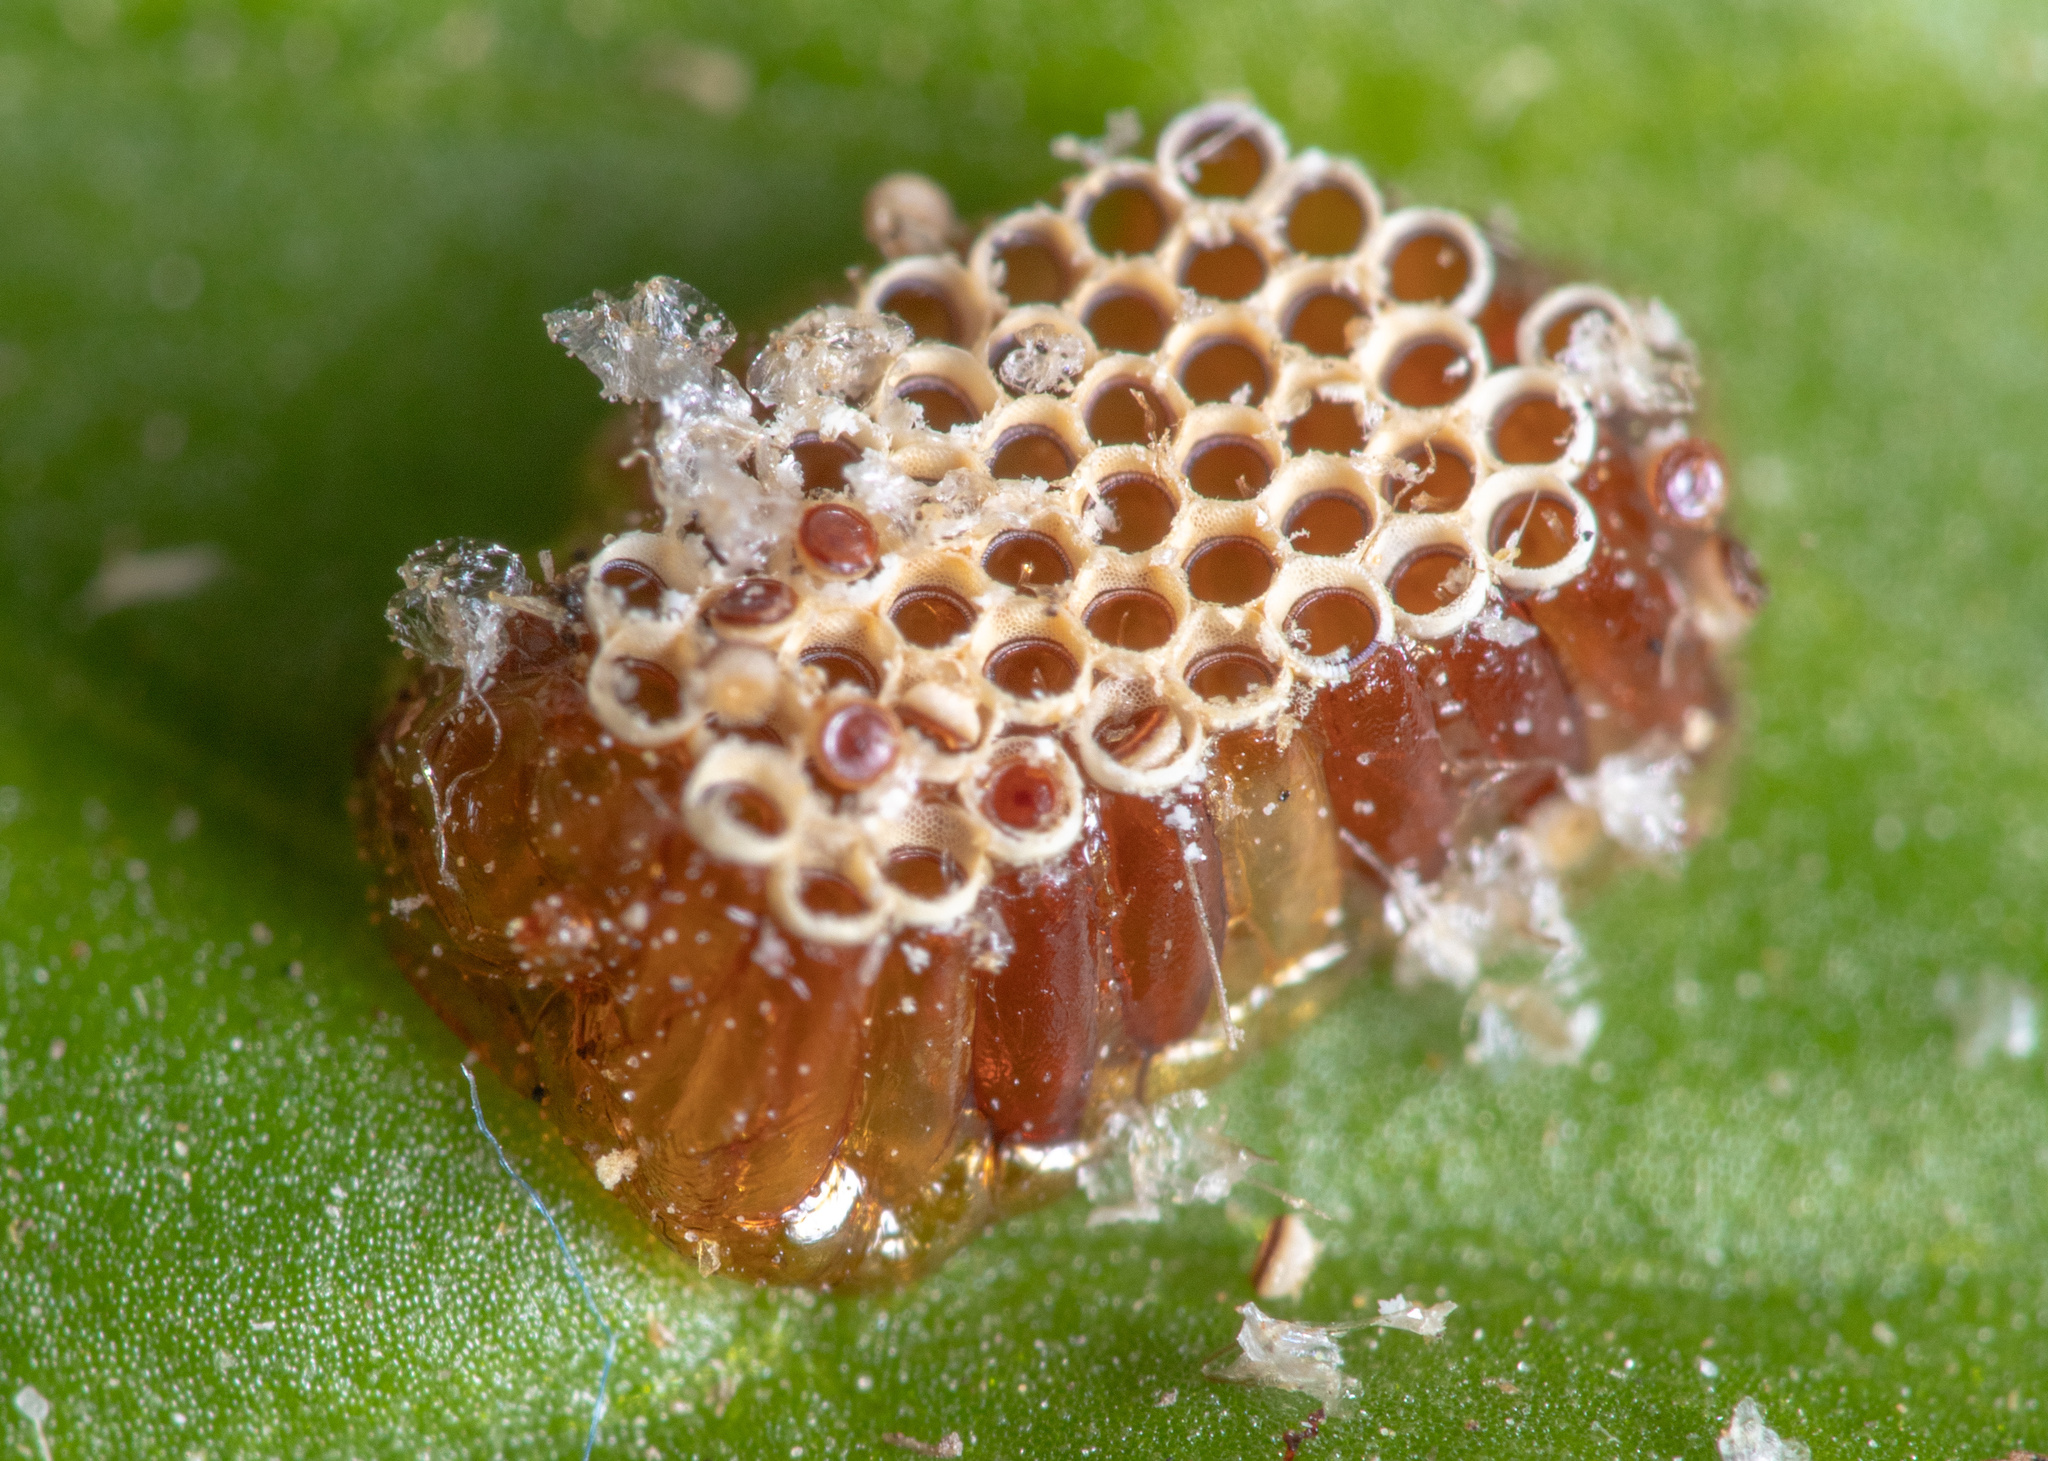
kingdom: Animalia
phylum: Arthropoda
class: Insecta
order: Hymenoptera
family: Apidae
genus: Apis
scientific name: Apis mellifera
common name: Honey bee
